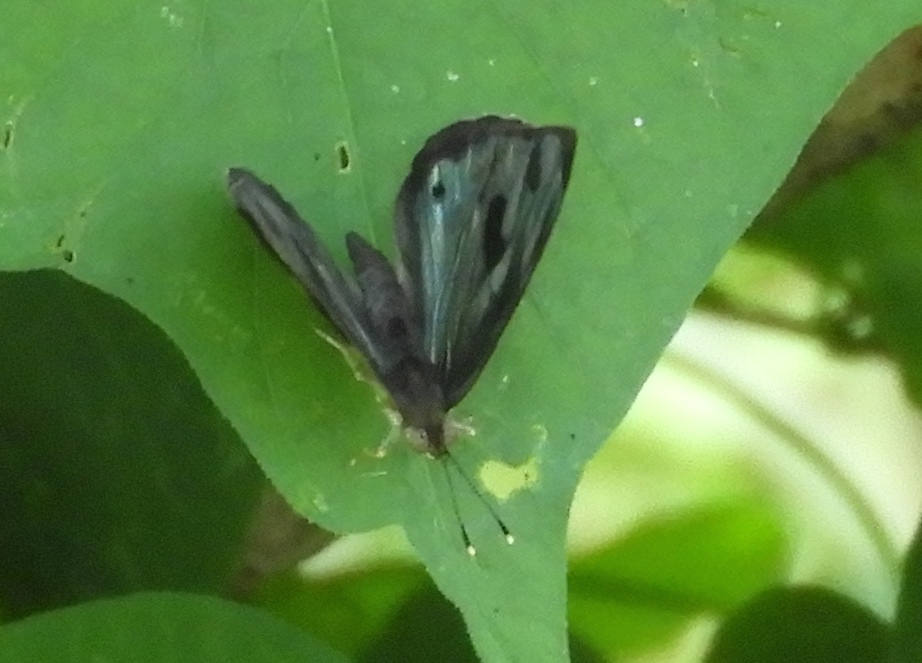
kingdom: Animalia
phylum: Arthropoda
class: Insecta
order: Lepidoptera
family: Nymphalidae
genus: Dynamine
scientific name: Dynamine mylitta
